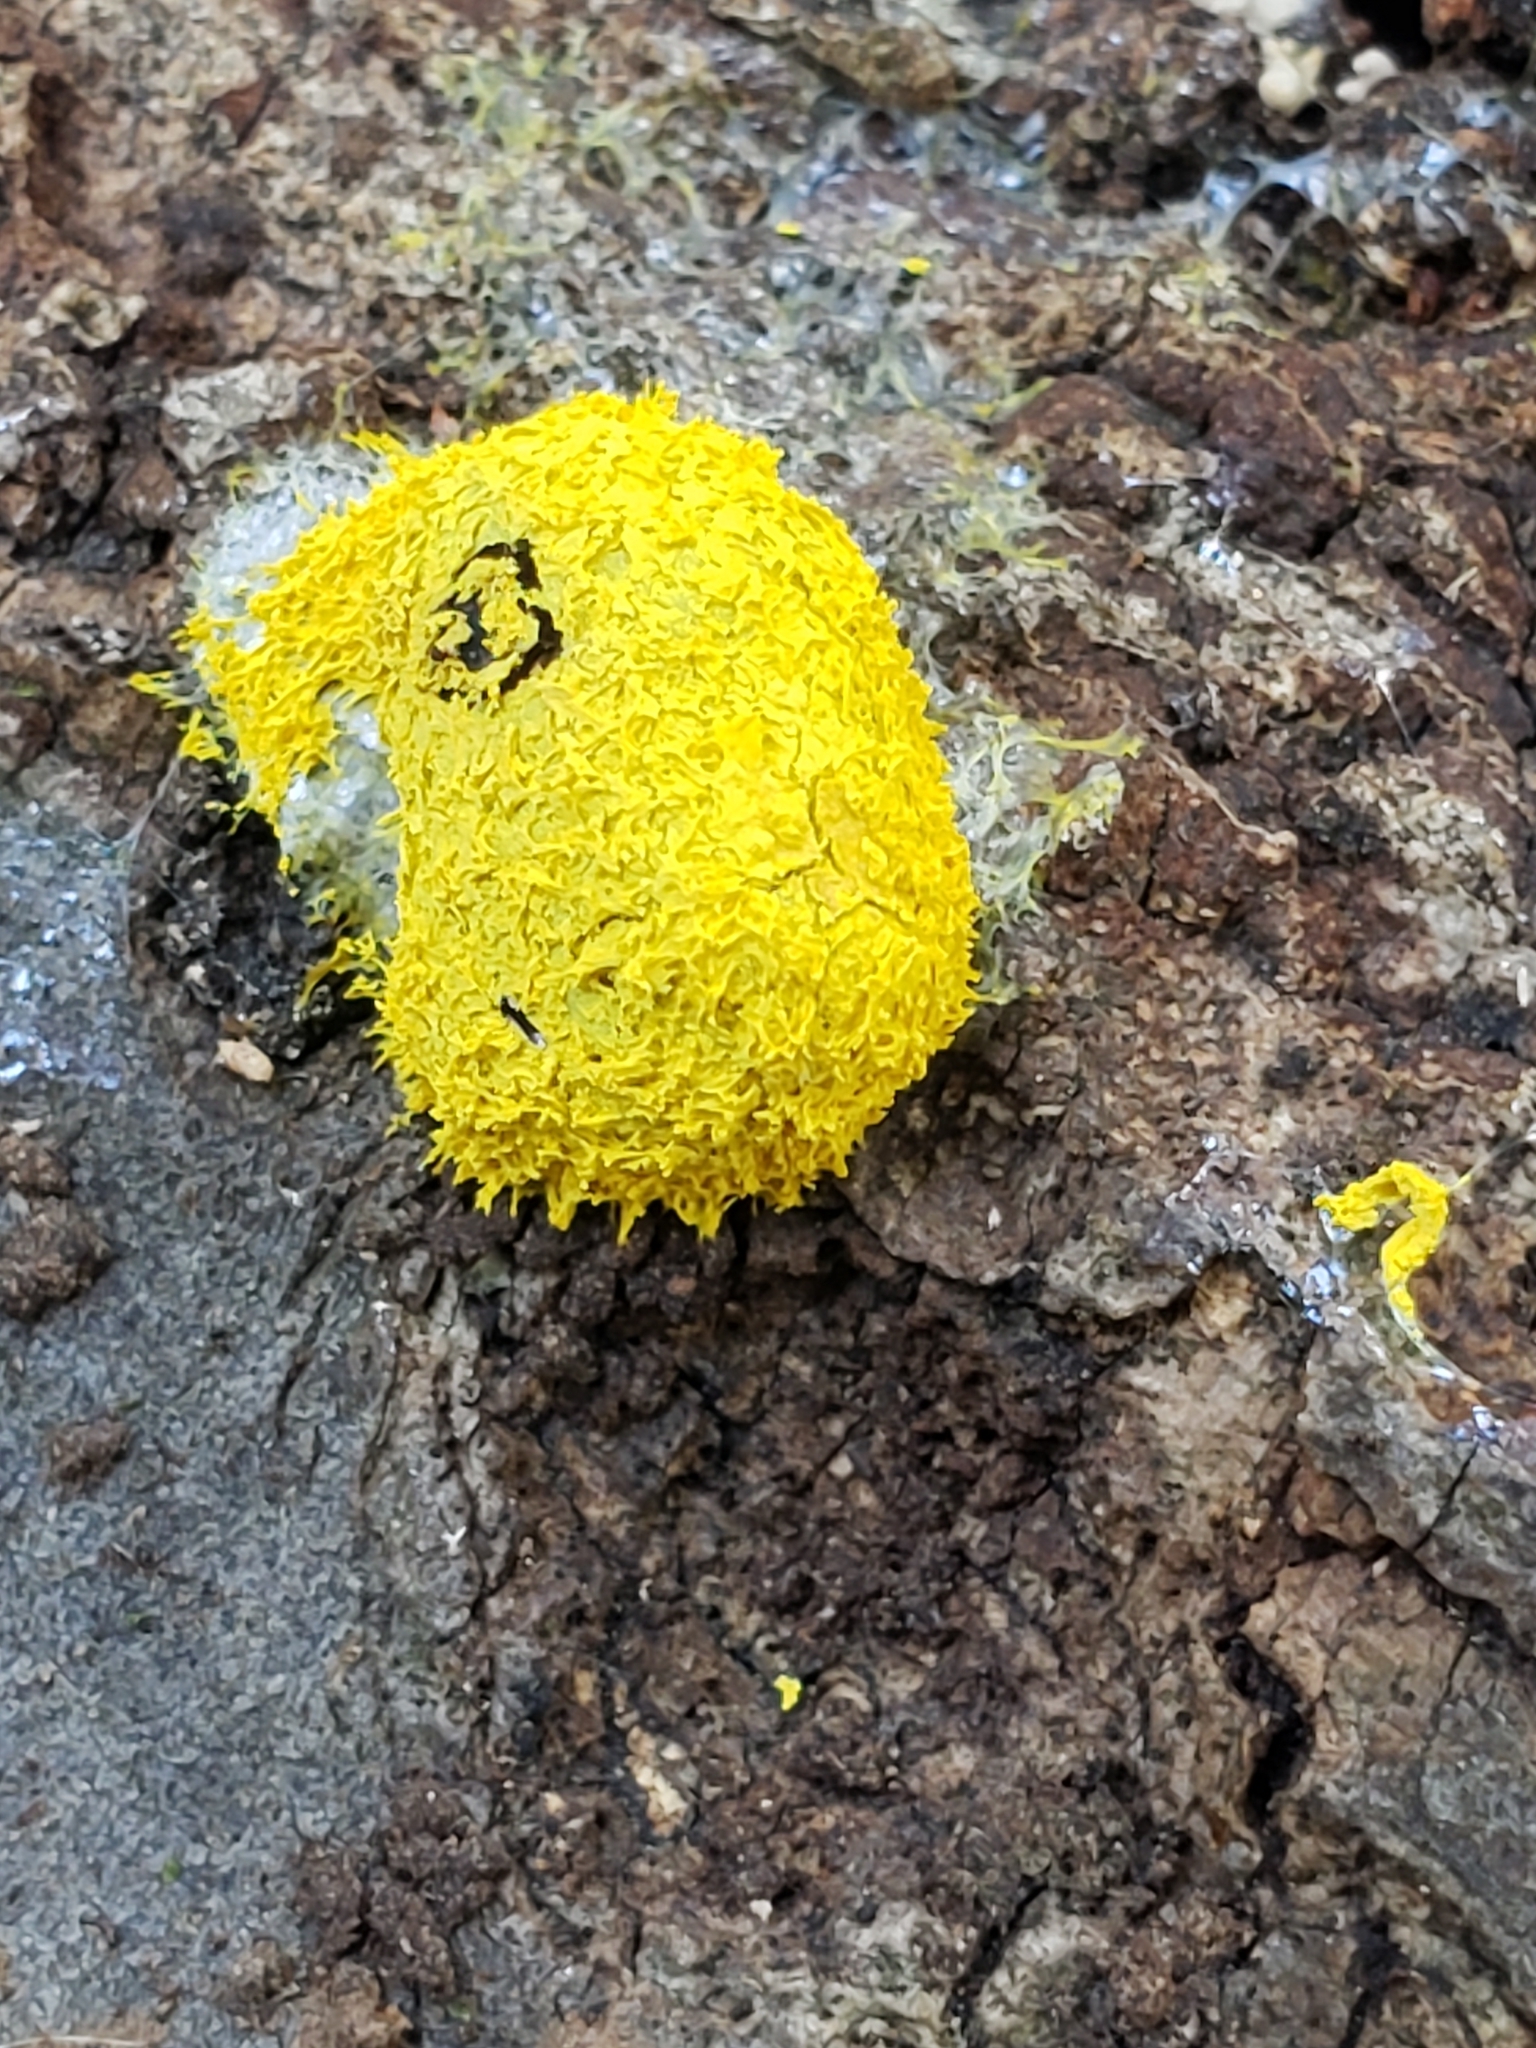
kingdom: Protozoa
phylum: Mycetozoa
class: Myxomycetes
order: Physarales
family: Physaraceae
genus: Fuligo
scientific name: Fuligo septica
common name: Dog vomit slime mold
